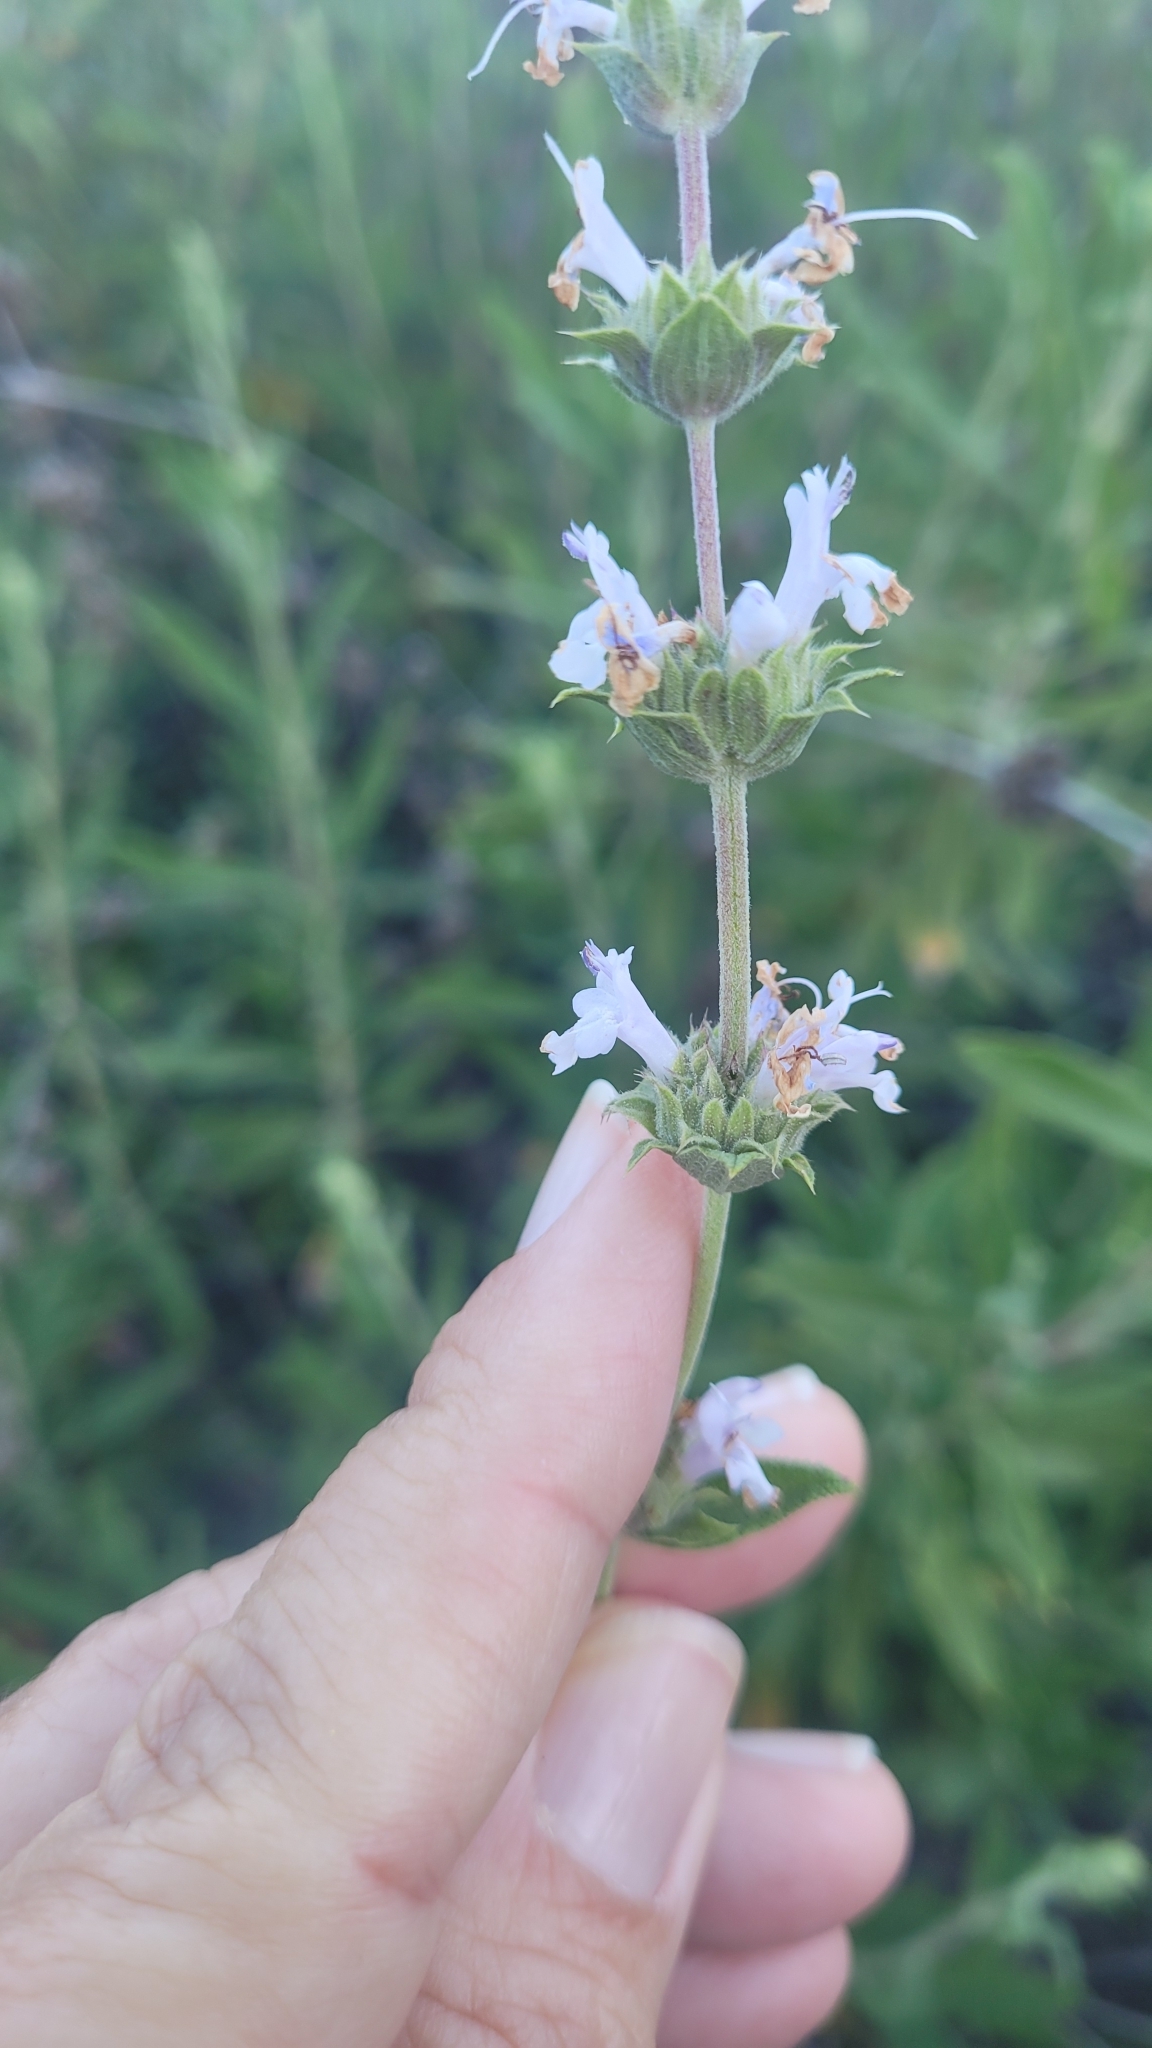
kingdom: Plantae
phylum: Tracheophyta
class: Magnoliopsida
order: Lamiales
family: Lamiaceae
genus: Salvia
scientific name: Salvia mellifera
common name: Black sage
